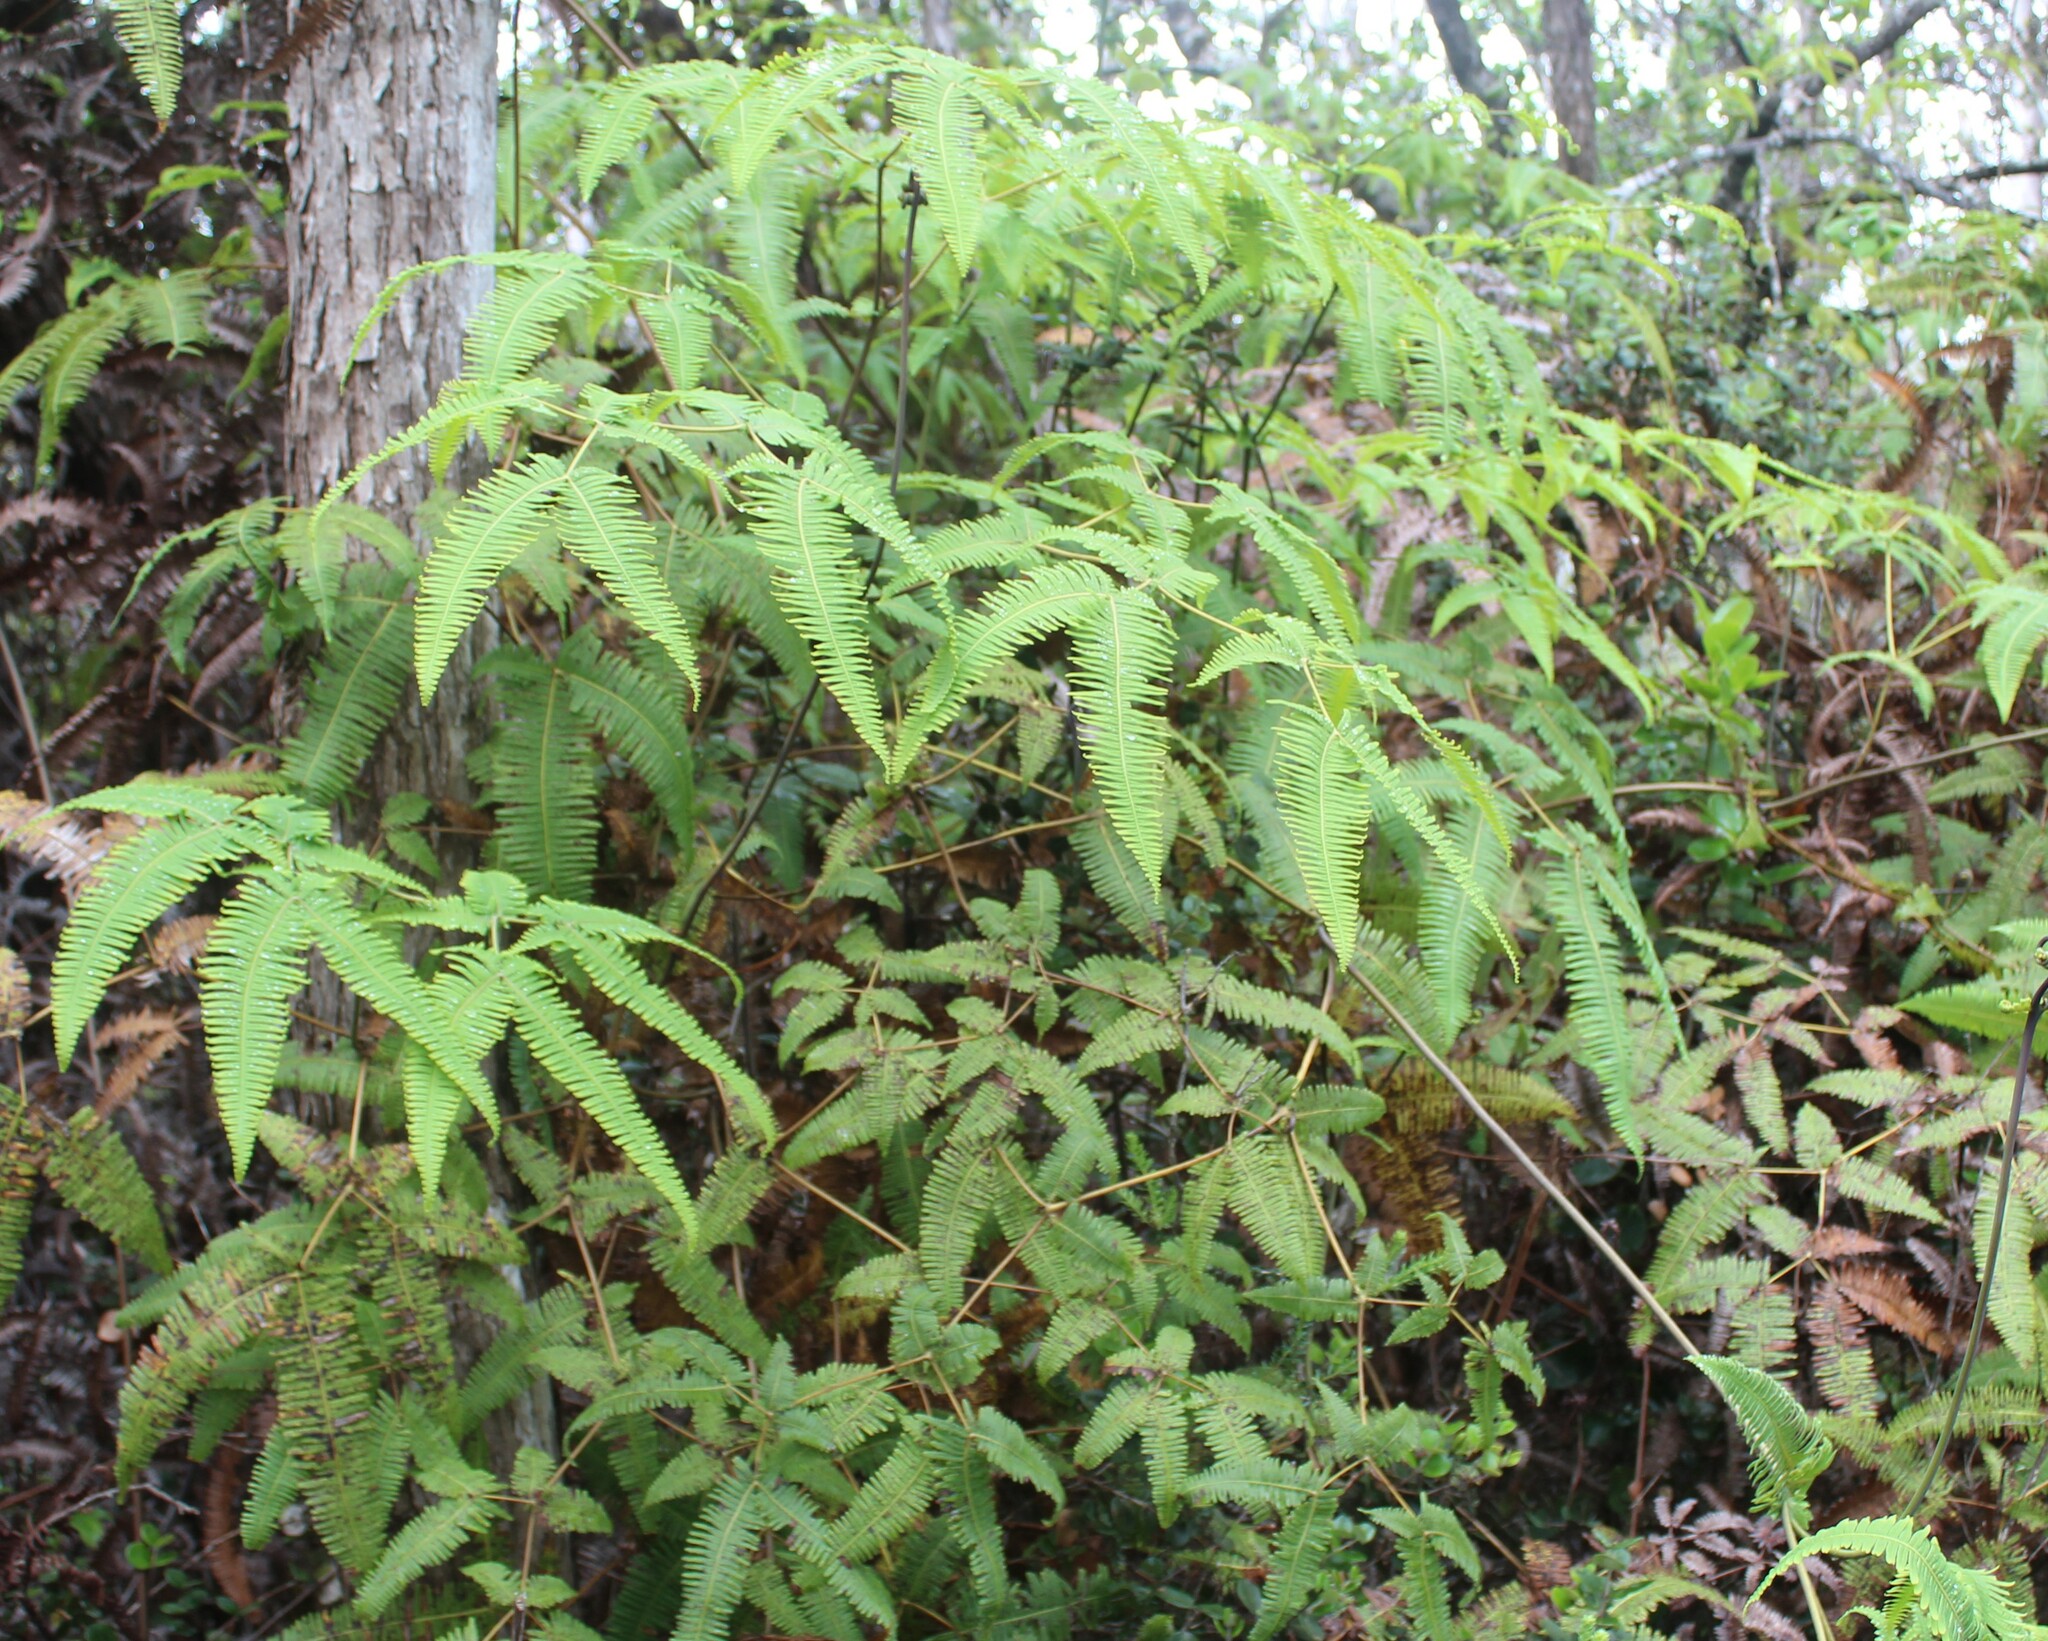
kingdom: Plantae
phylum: Tracheophyta
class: Polypodiopsida
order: Gleicheniales
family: Gleicheniaceae
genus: Dicranopteris
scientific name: Dicranopteris linearis
